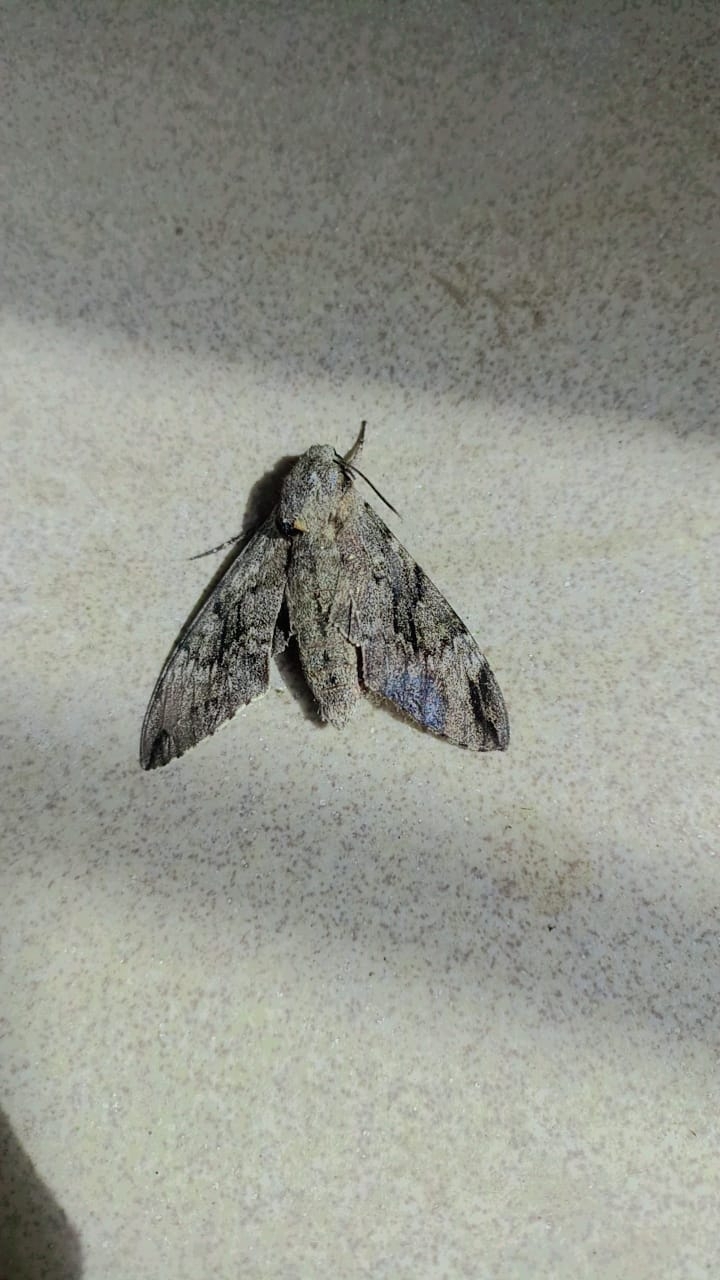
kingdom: Animalia
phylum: Arthropoda
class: Insecta
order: Lepidoptera
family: Sphingidae
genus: Psilogramma
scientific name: Psilogramma increta
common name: Gray hawk moth
